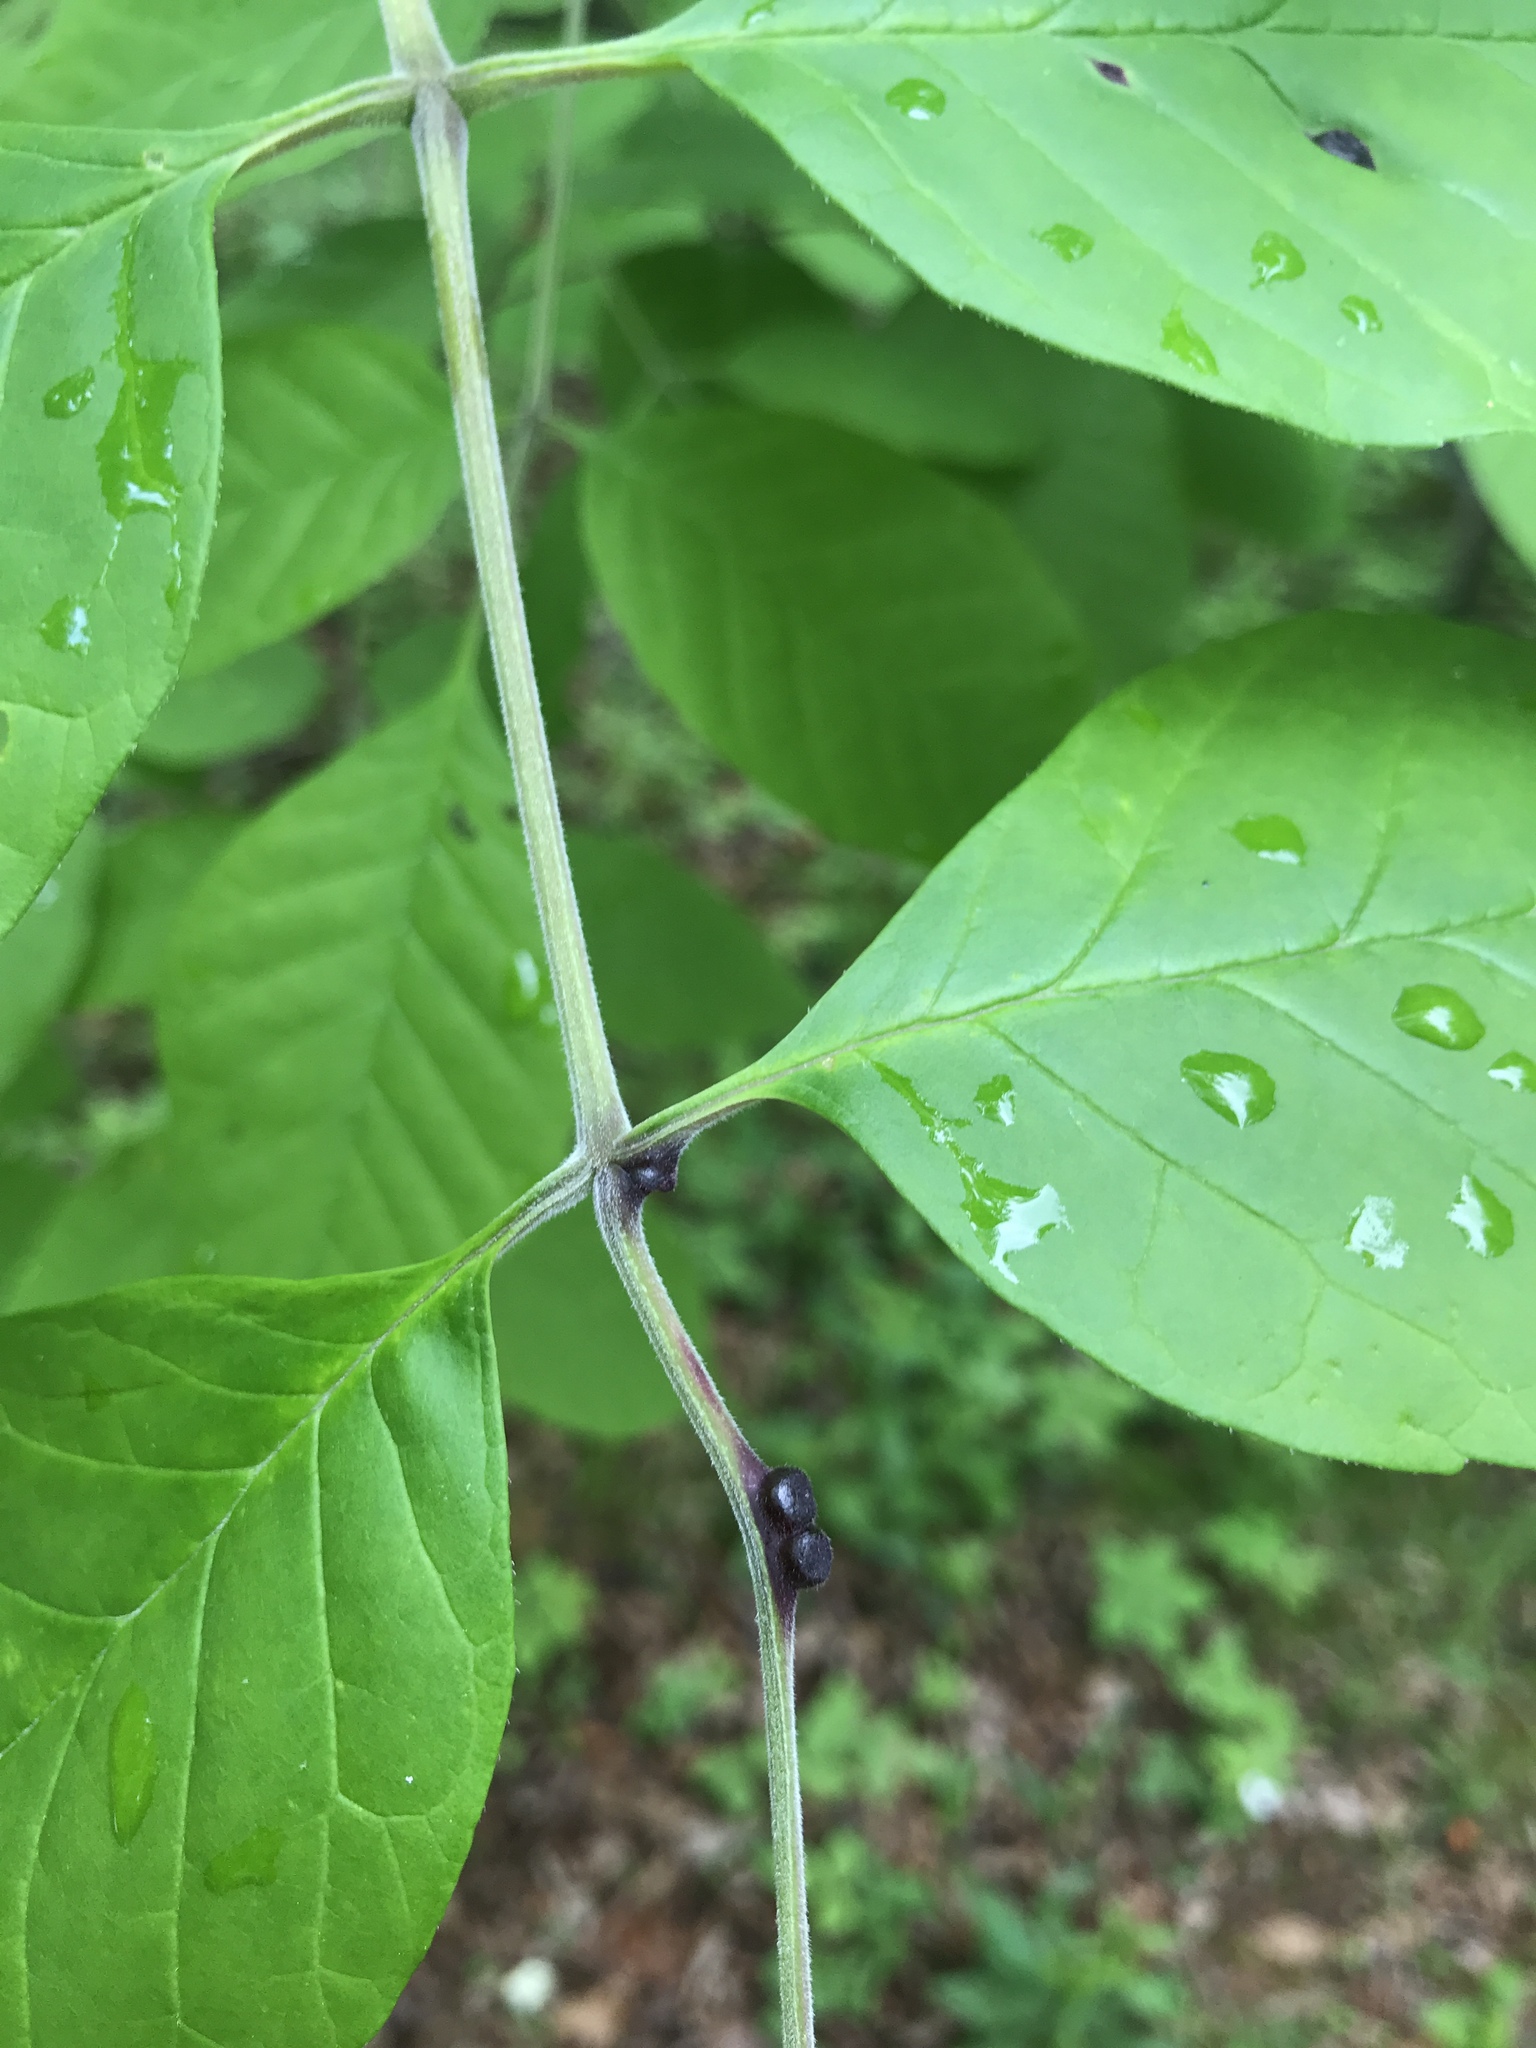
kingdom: Animalia
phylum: Arthropoda
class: Insecta
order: Diptera
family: Cecidomyiidae
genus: Dasineura
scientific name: Dasineura pellex
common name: Ash bullet gall midge
